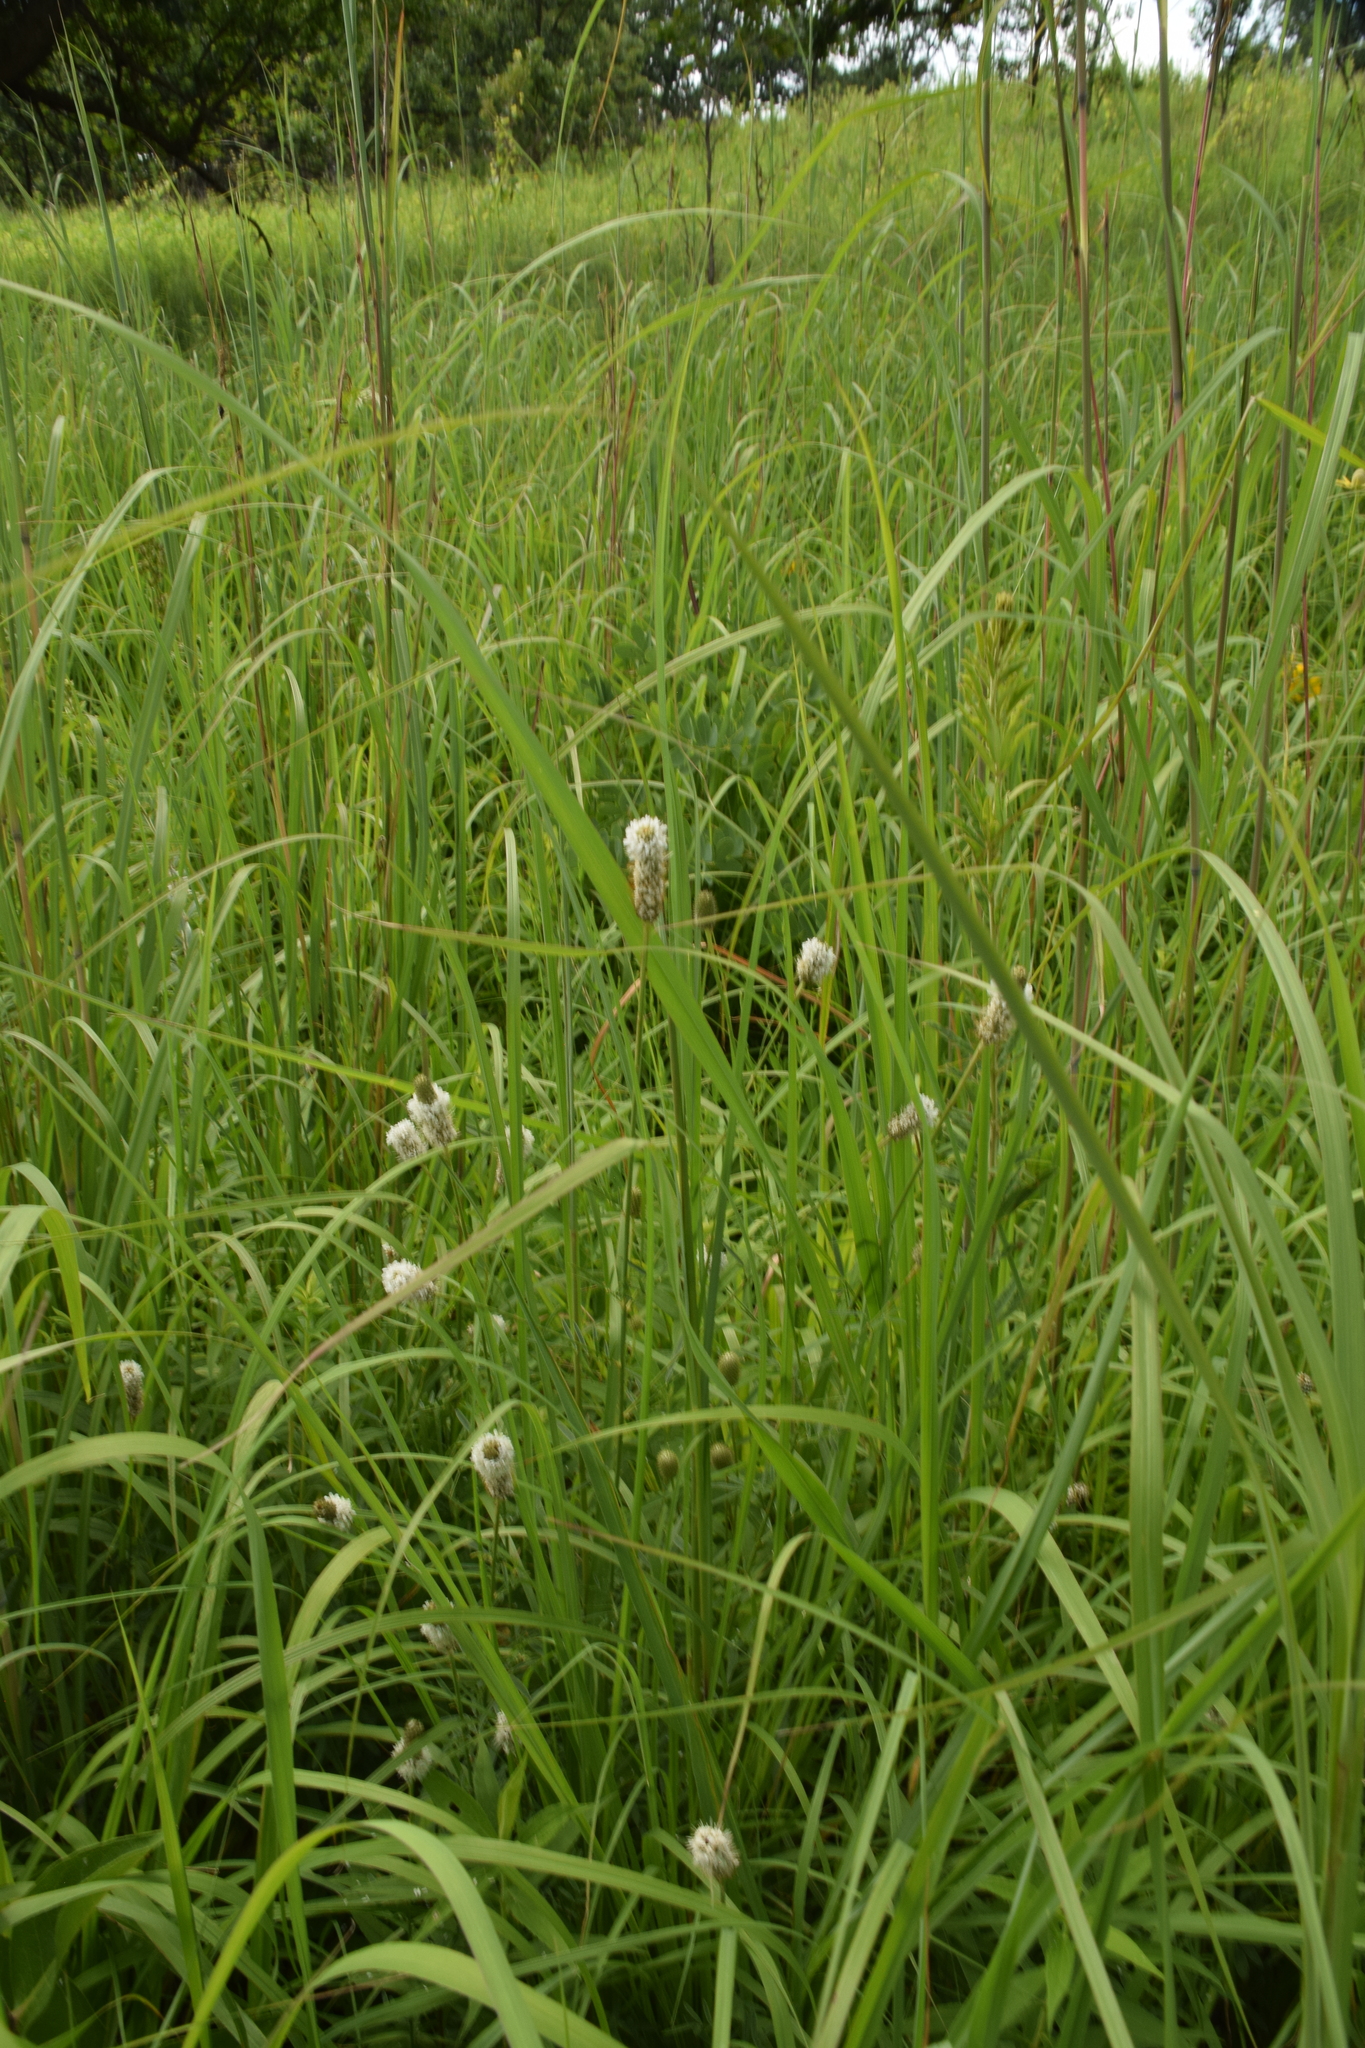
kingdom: Plantae
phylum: Tracheophyta
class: Magnoliopsida
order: Fabales
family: Fabaceae
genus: Dalea
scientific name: Dalea candida
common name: White prairie-clover
